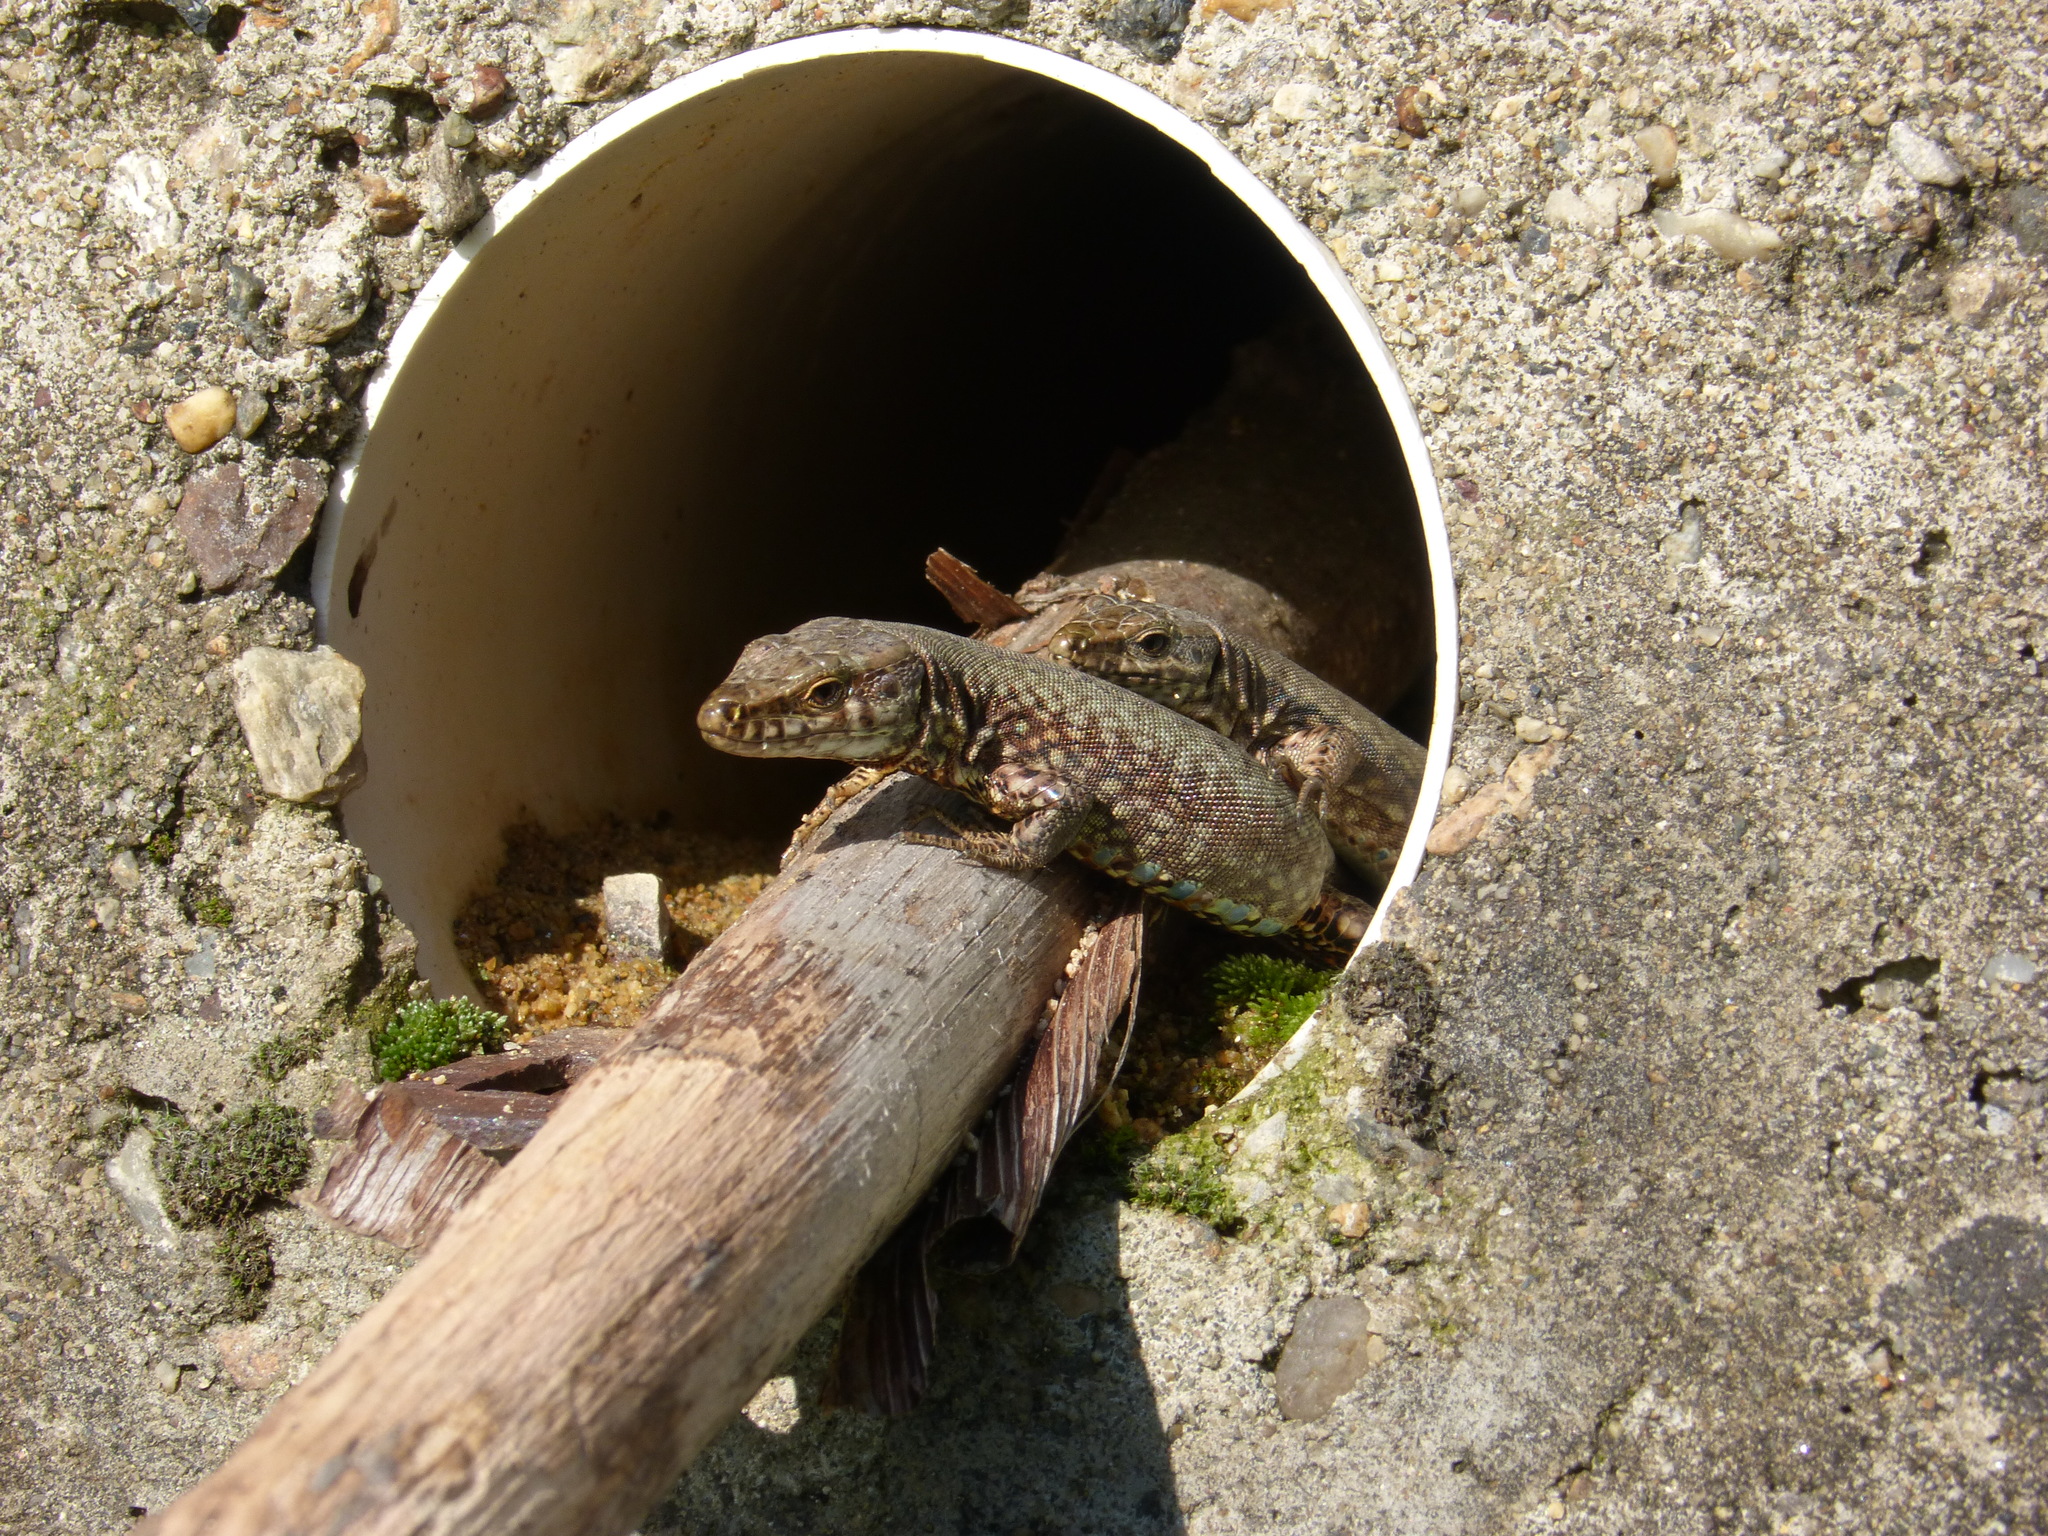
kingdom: Animalia
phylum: Chordata
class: Squamata
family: Lacertidae
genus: Podarcis
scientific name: Podarcis muralis
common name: Common wall lizard
